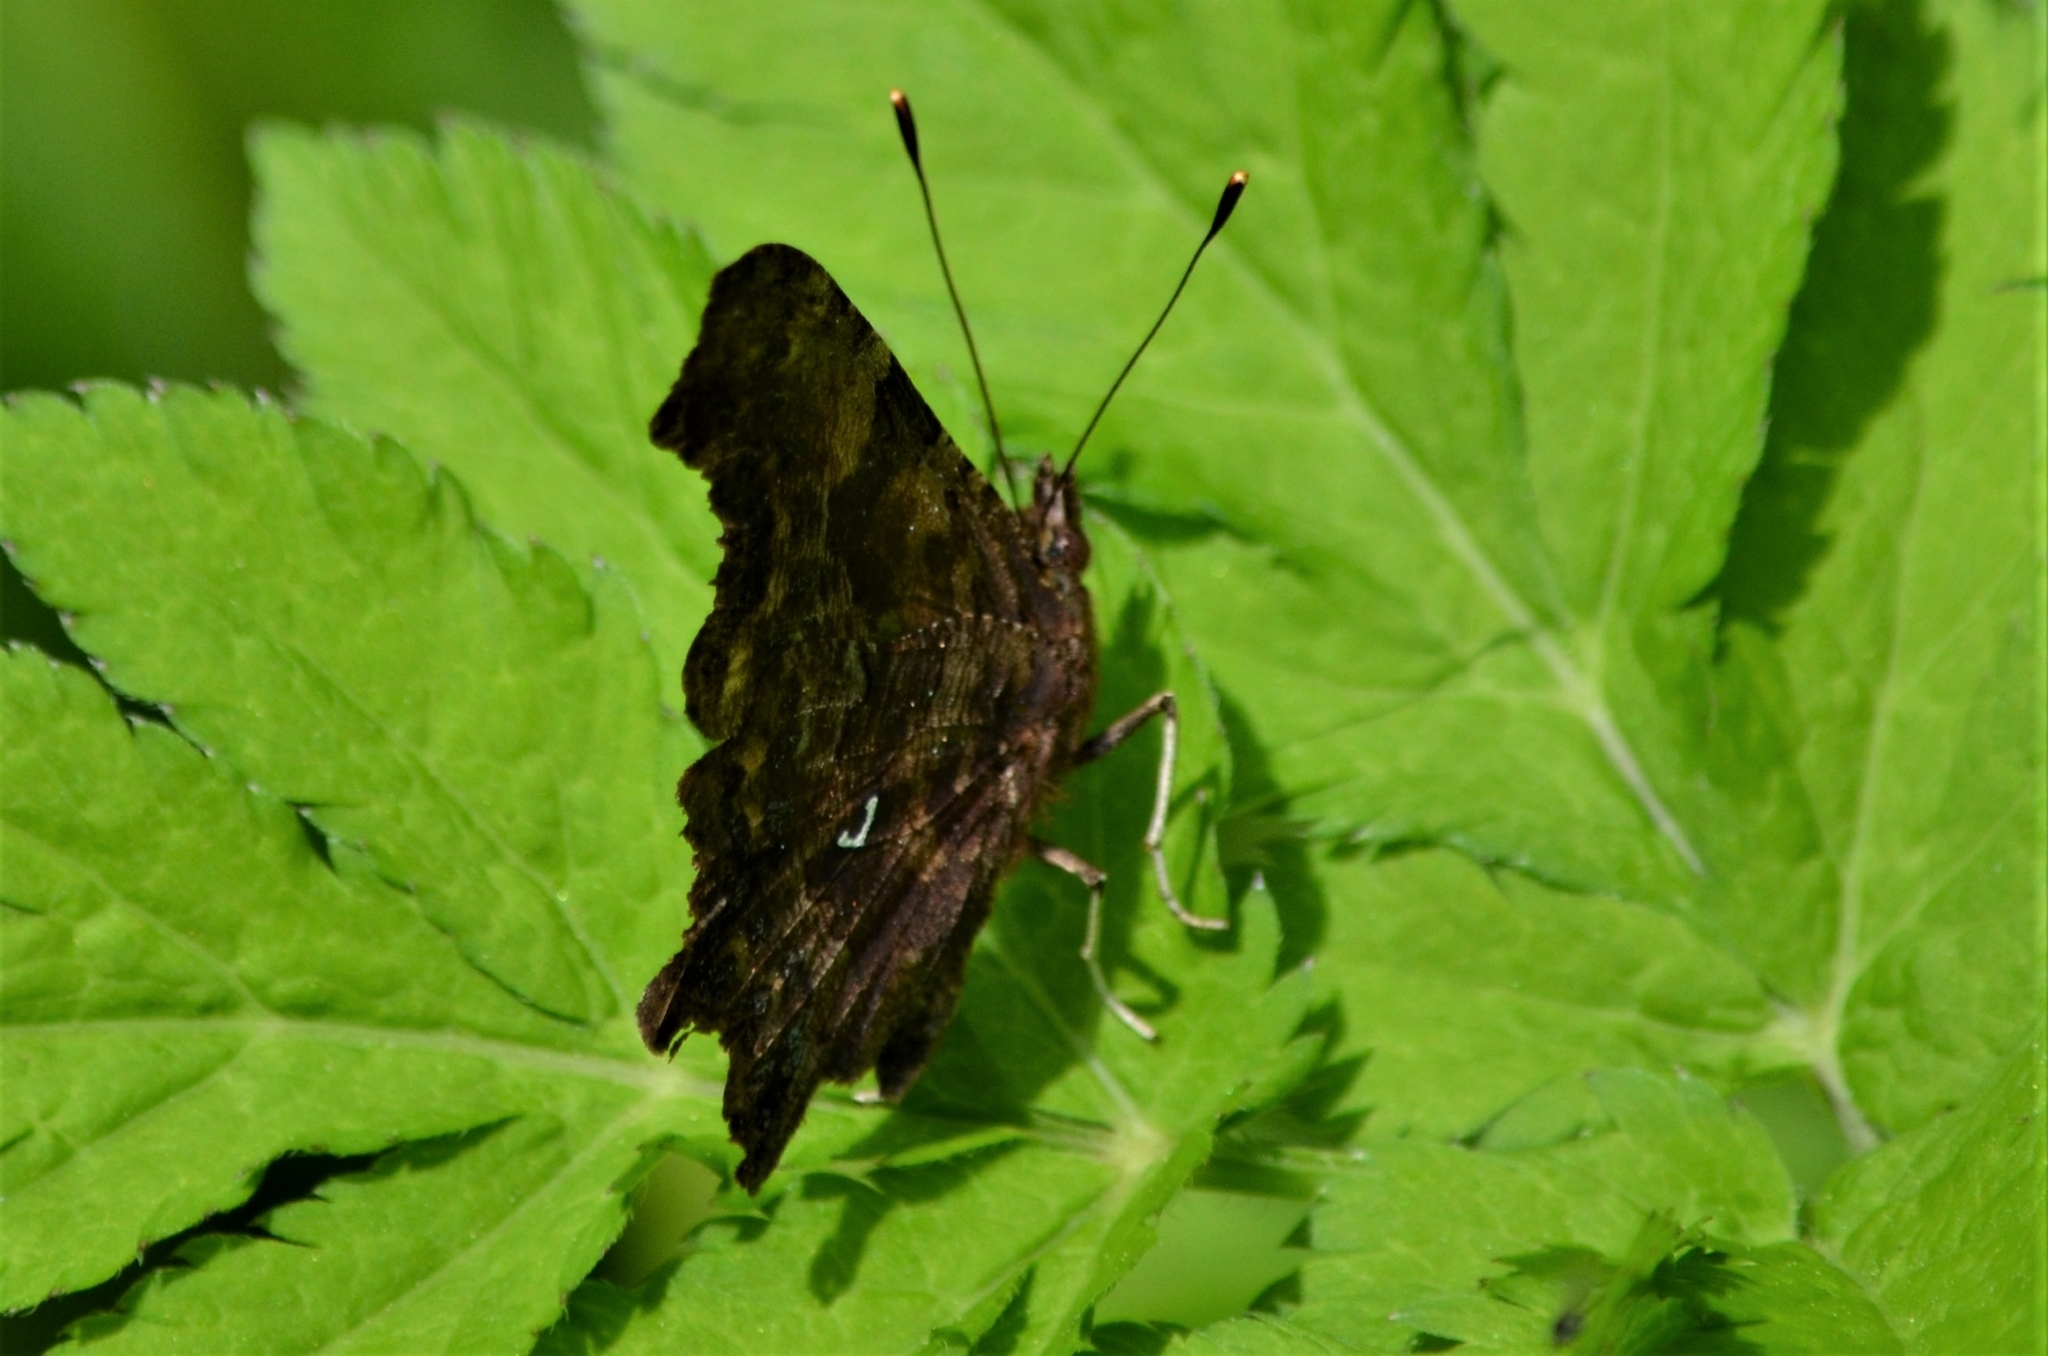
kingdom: Animalia
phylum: Arthropoda
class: Insecta
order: Lepidoptera
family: Nymphalidae
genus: Polygonia
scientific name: Polygonia c-album
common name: Comma
